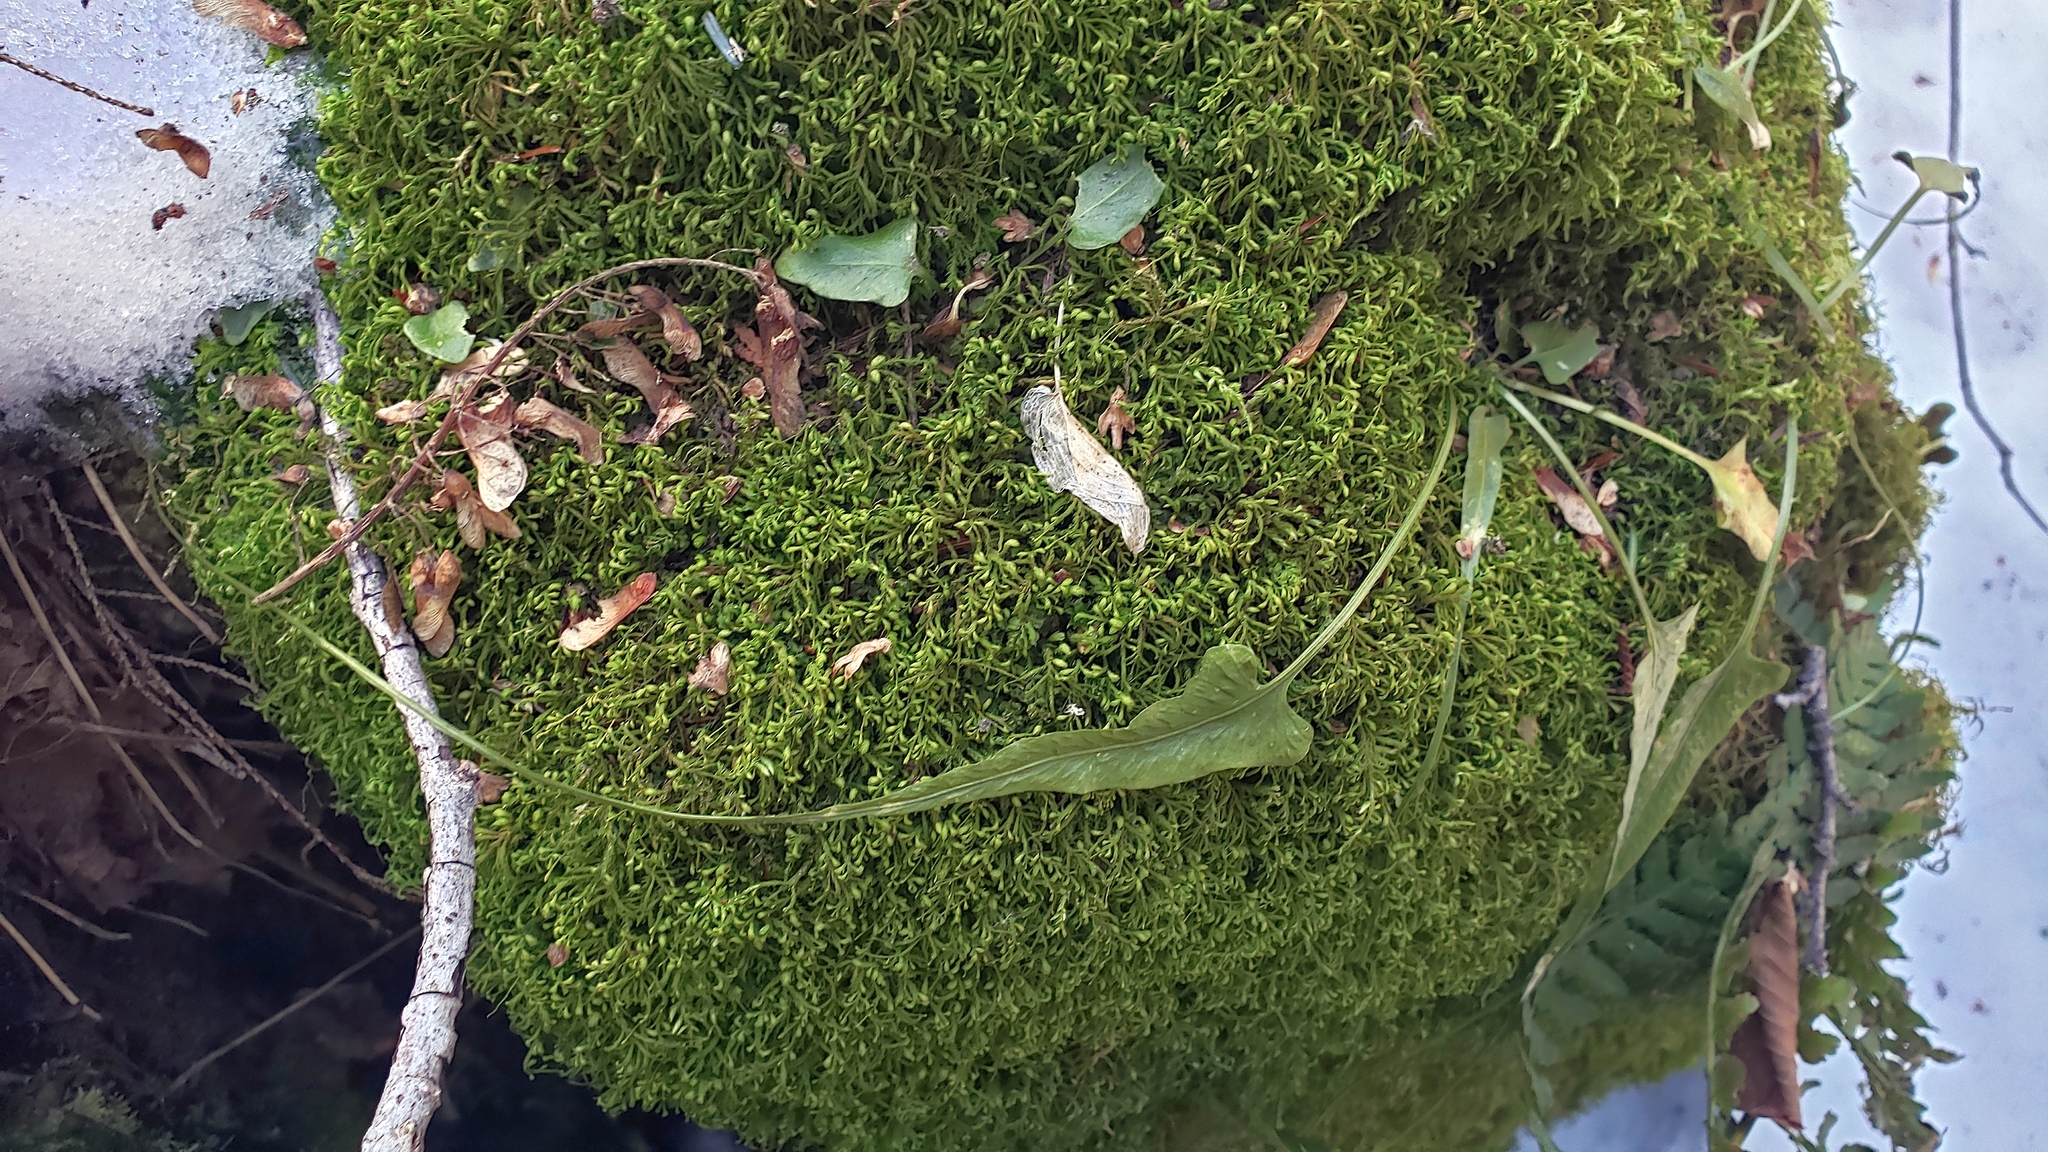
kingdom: Plantae
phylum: Tracheophyta
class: Polypodiopsida
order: Polypodiales
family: Aspleniaceae
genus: Asplenium
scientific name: Asplenium rhizophyllum
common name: Walking fern
